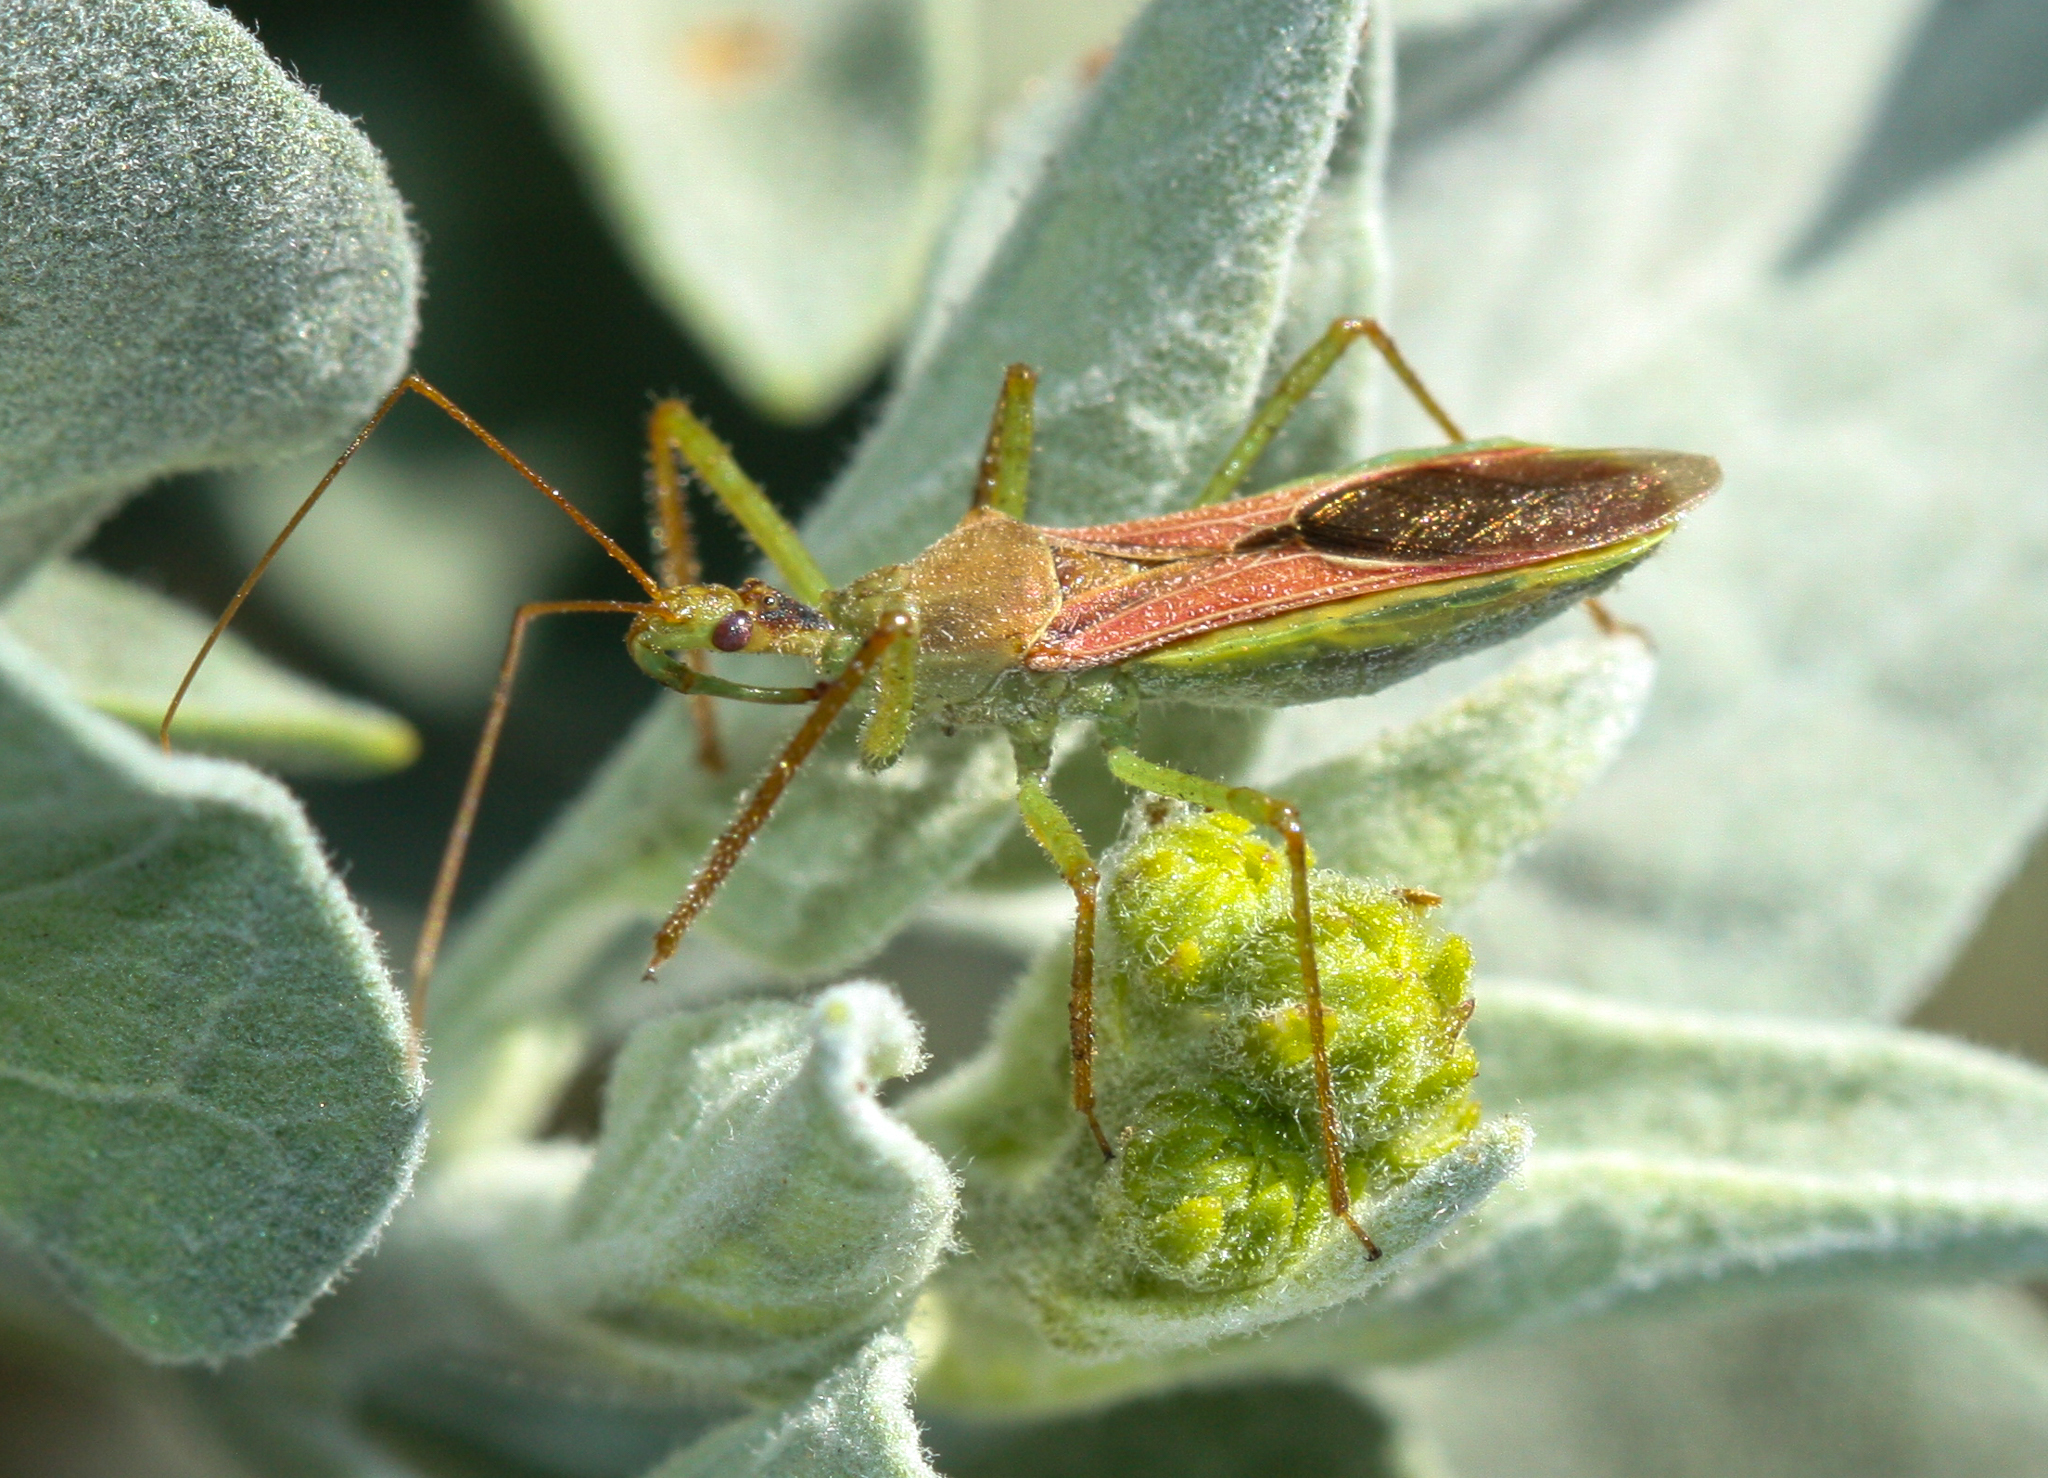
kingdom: Animalia
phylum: Arthropoda
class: Insecta
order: Hemiptera
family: Reduviidae
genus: Zelus
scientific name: Zelus renardii
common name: Assassin bug
